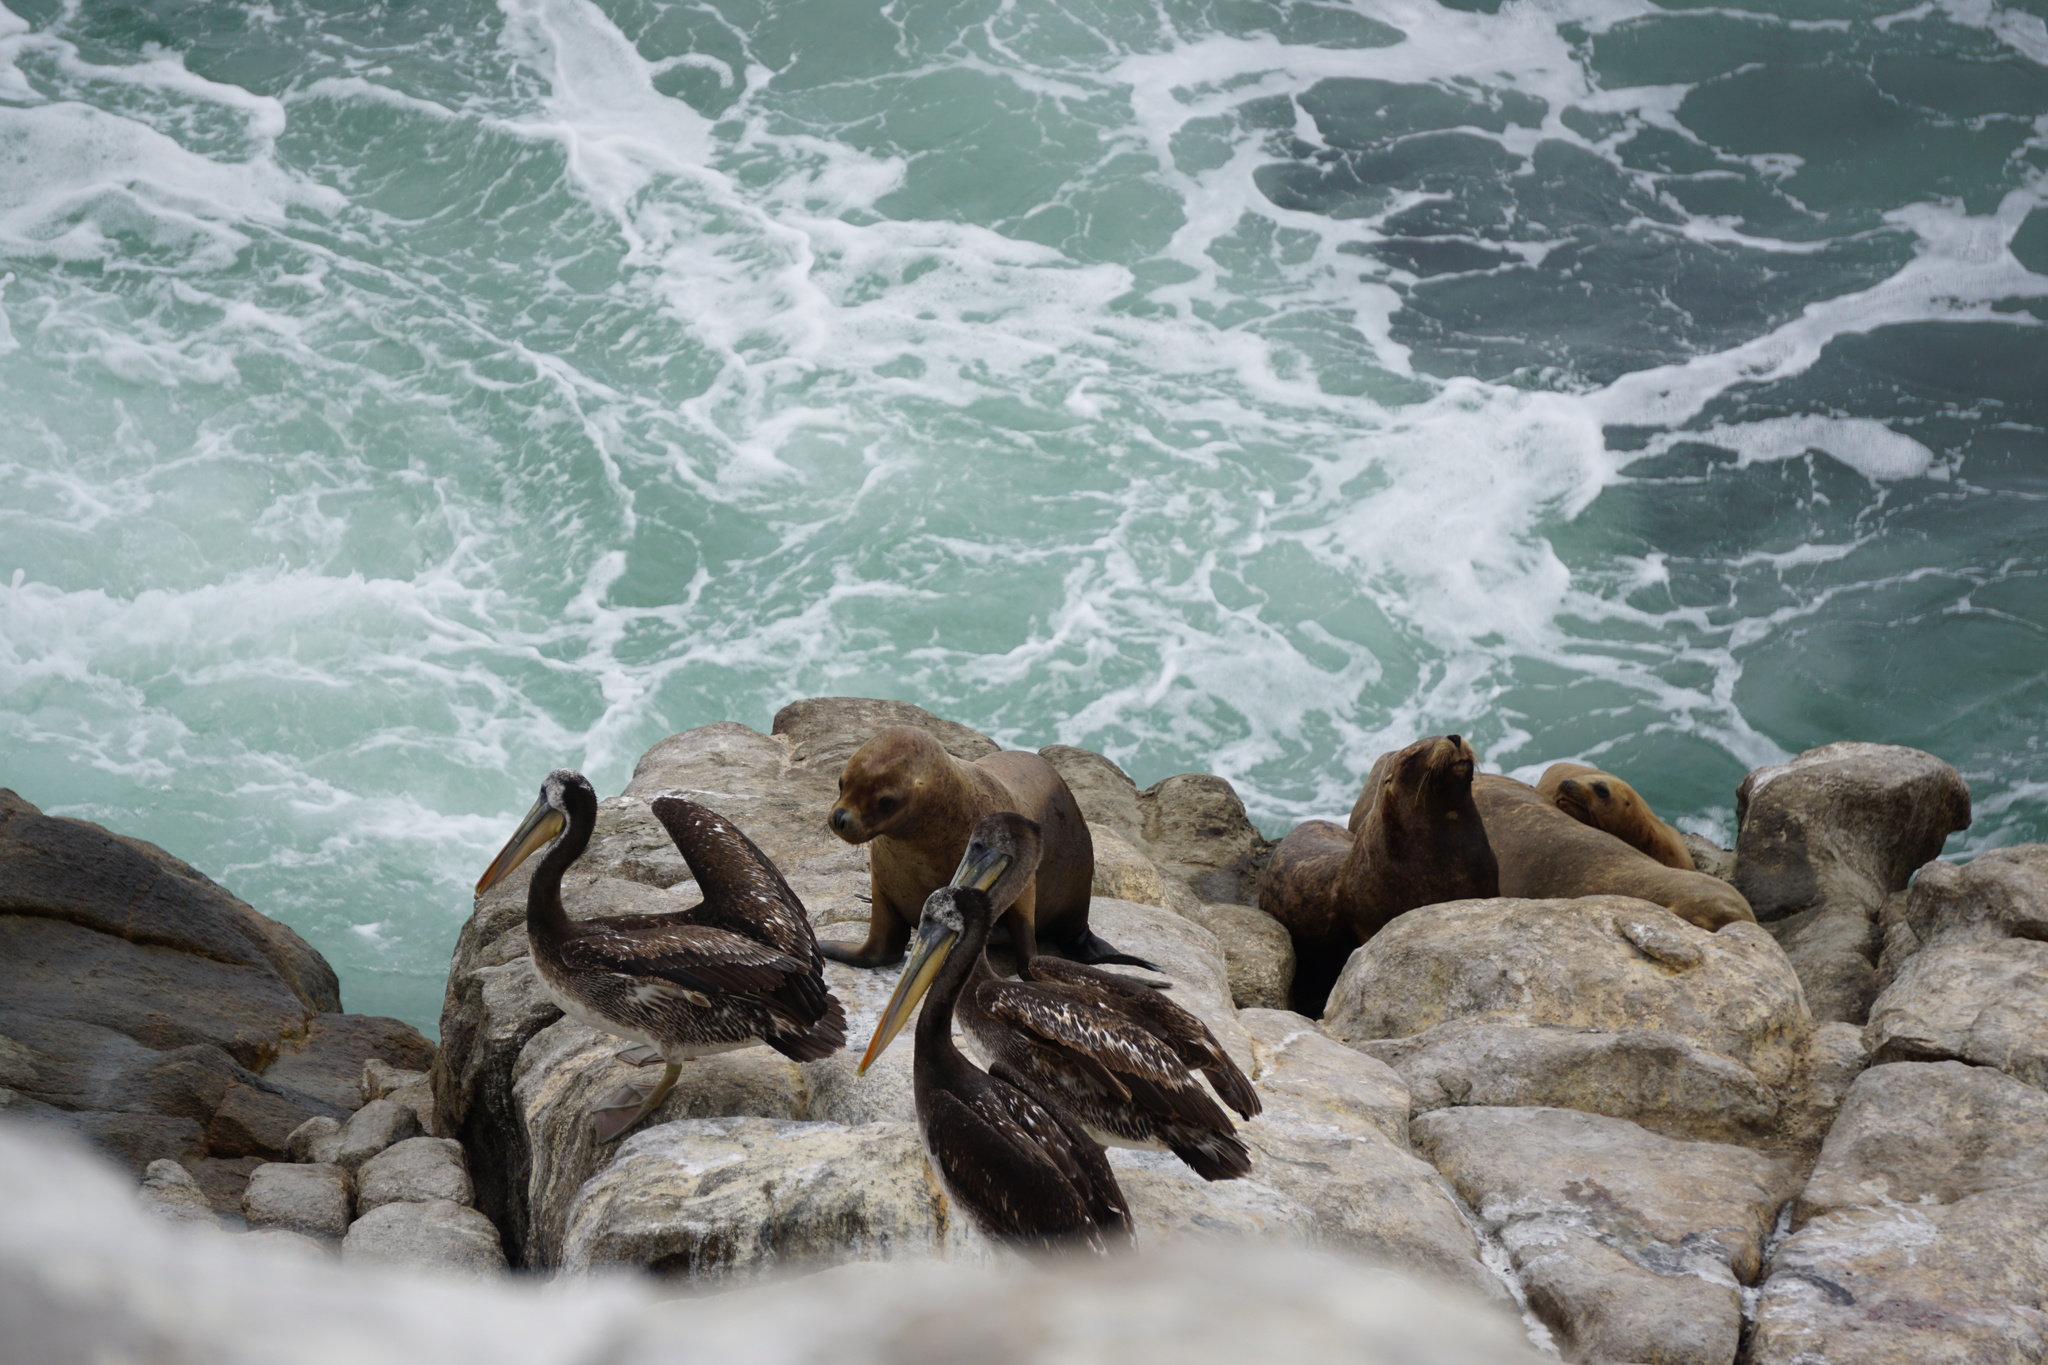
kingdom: Animalia
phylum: Chordata
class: Aves
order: Pelecaniformes
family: Pelecanidae
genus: Pelecanus
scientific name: Pelecanus thagus
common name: Peruvian pelican
